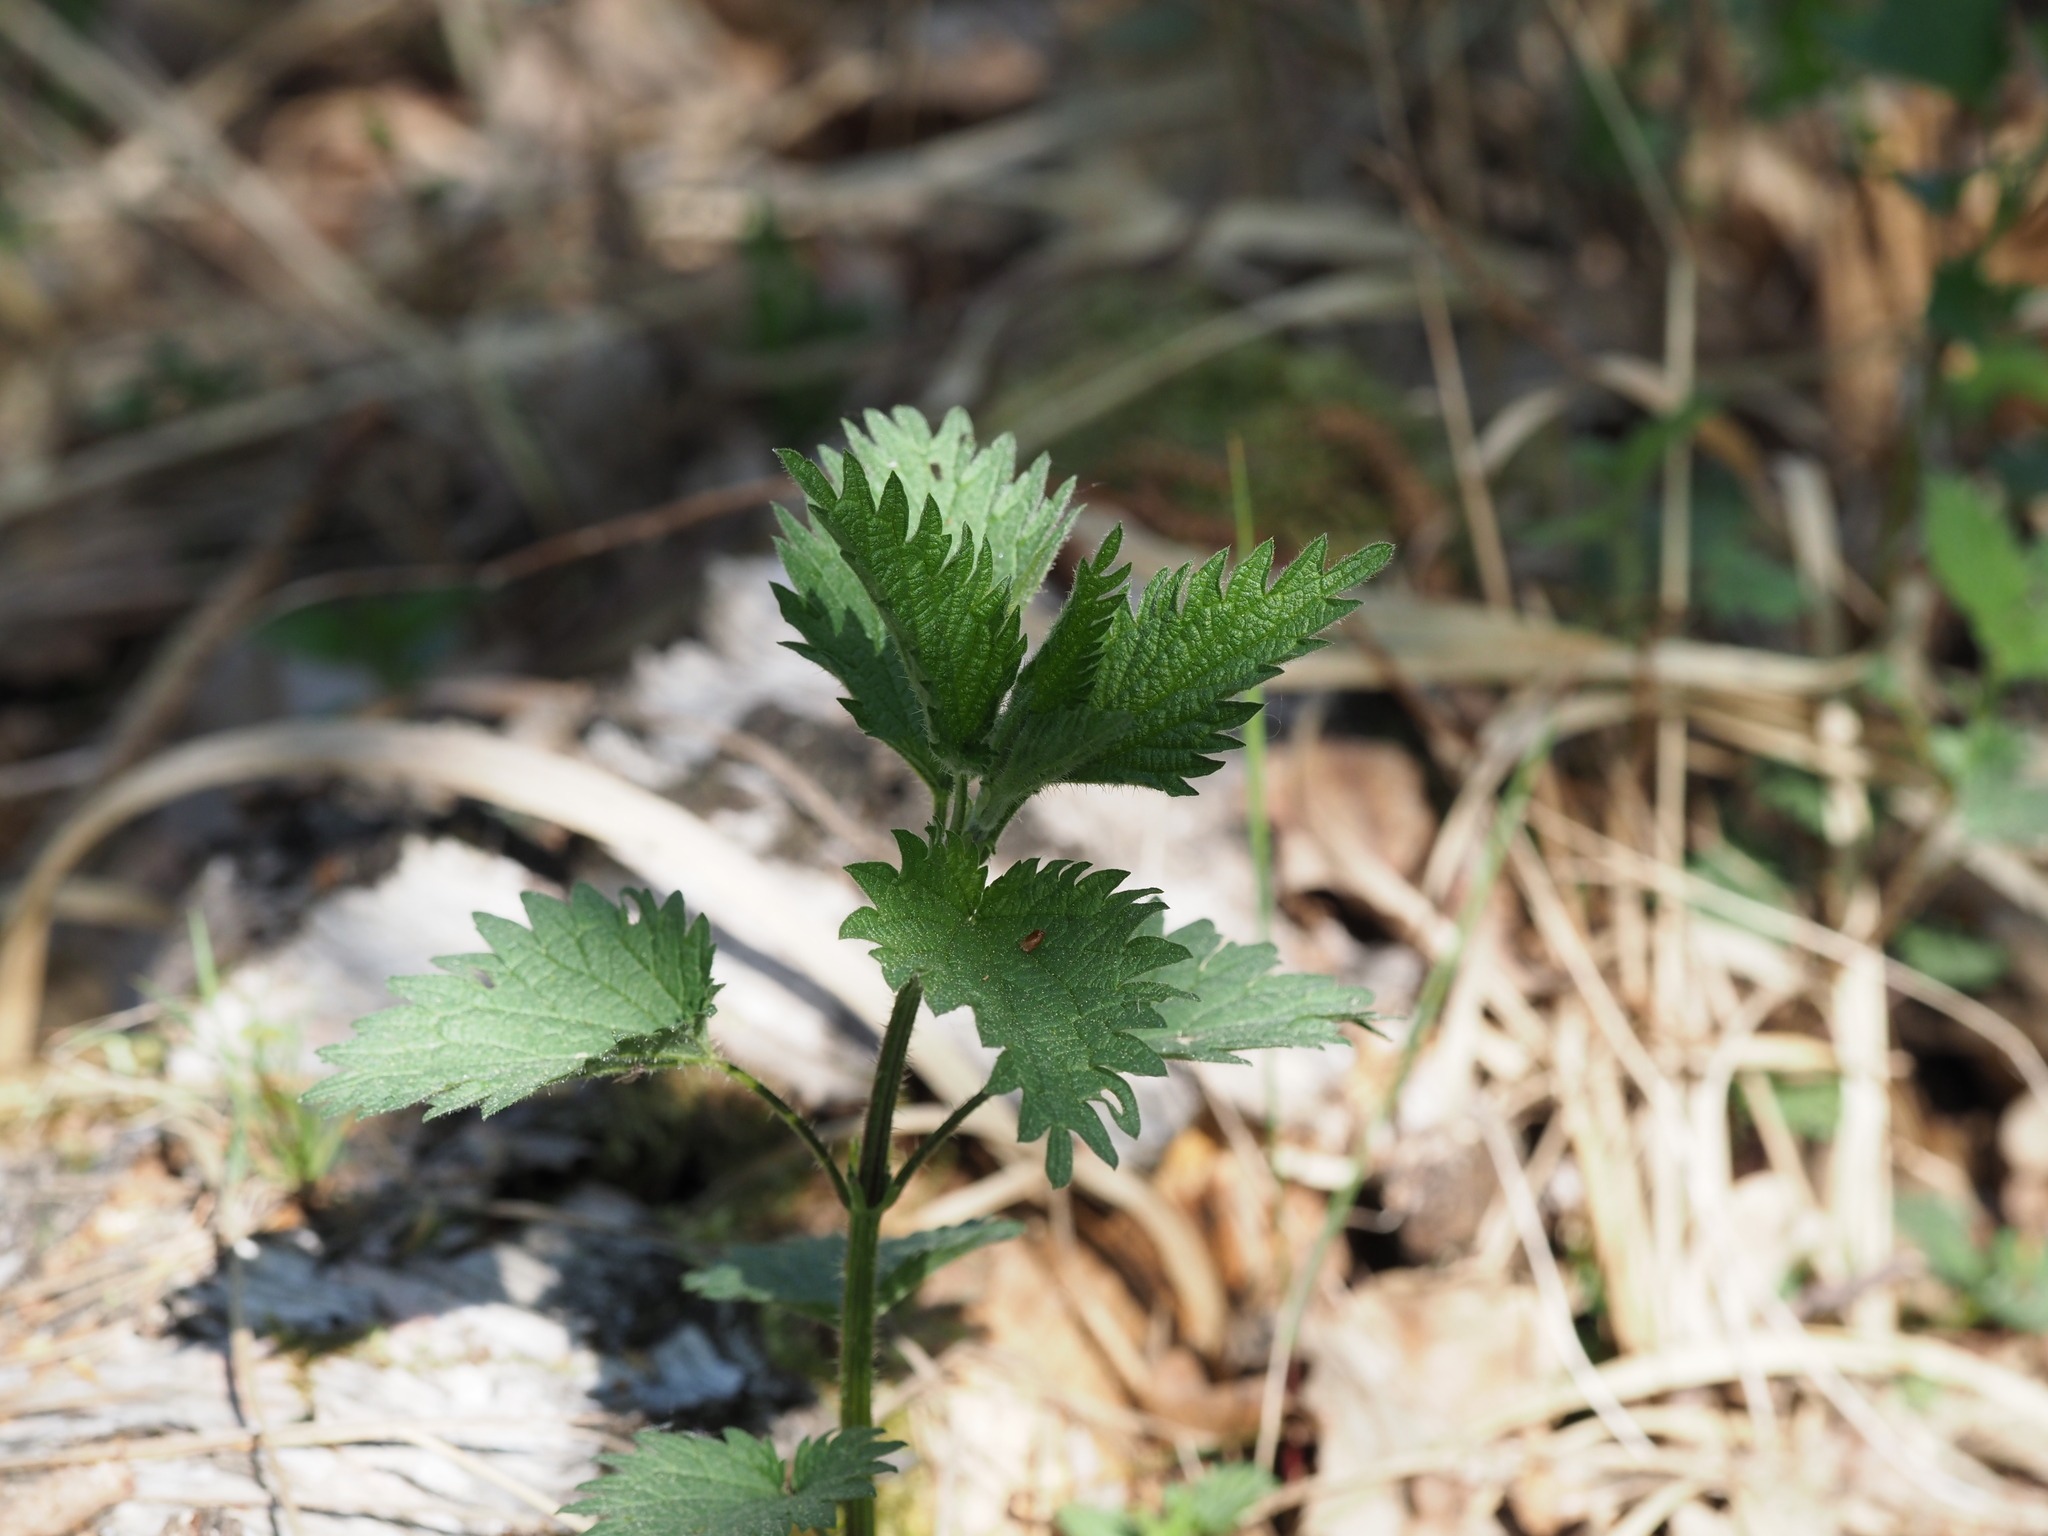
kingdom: Plantae
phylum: Tracheophyta
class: Magnoliopsida
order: Rosales
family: Urticaceae
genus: Urtica
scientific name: Urtica dioica
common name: Common nettle
